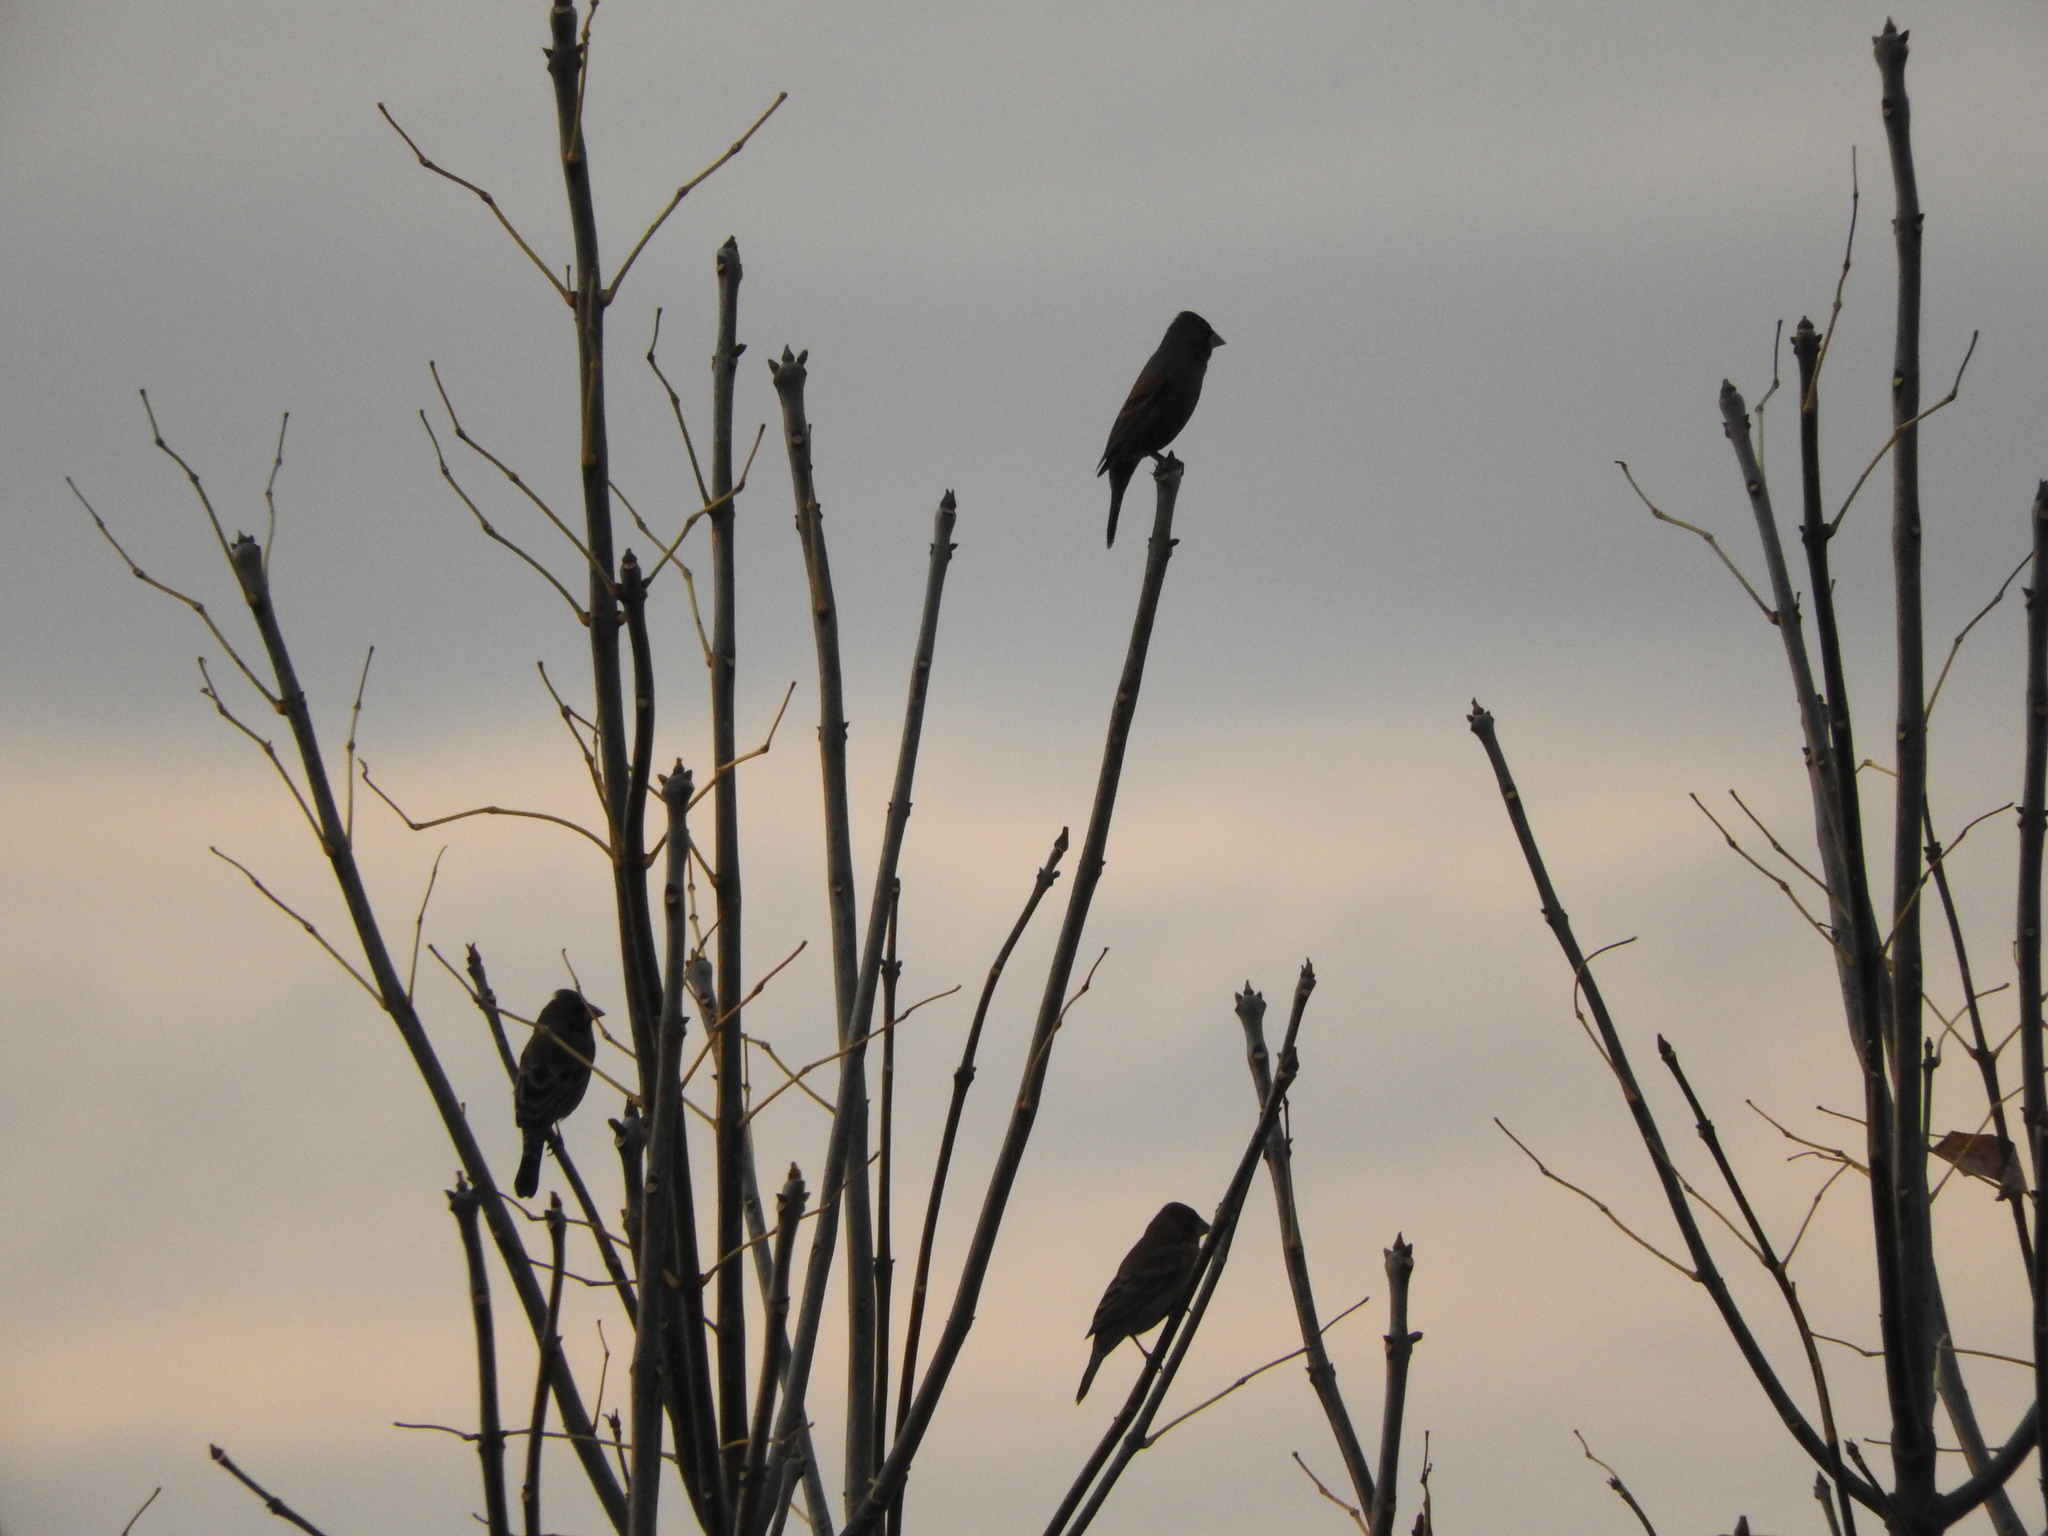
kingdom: Animalia
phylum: Chordata
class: Aves
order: Passeriformes
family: Cardinalidae
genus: Passerina
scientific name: Passerina caerulea
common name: Blue grosbeak
